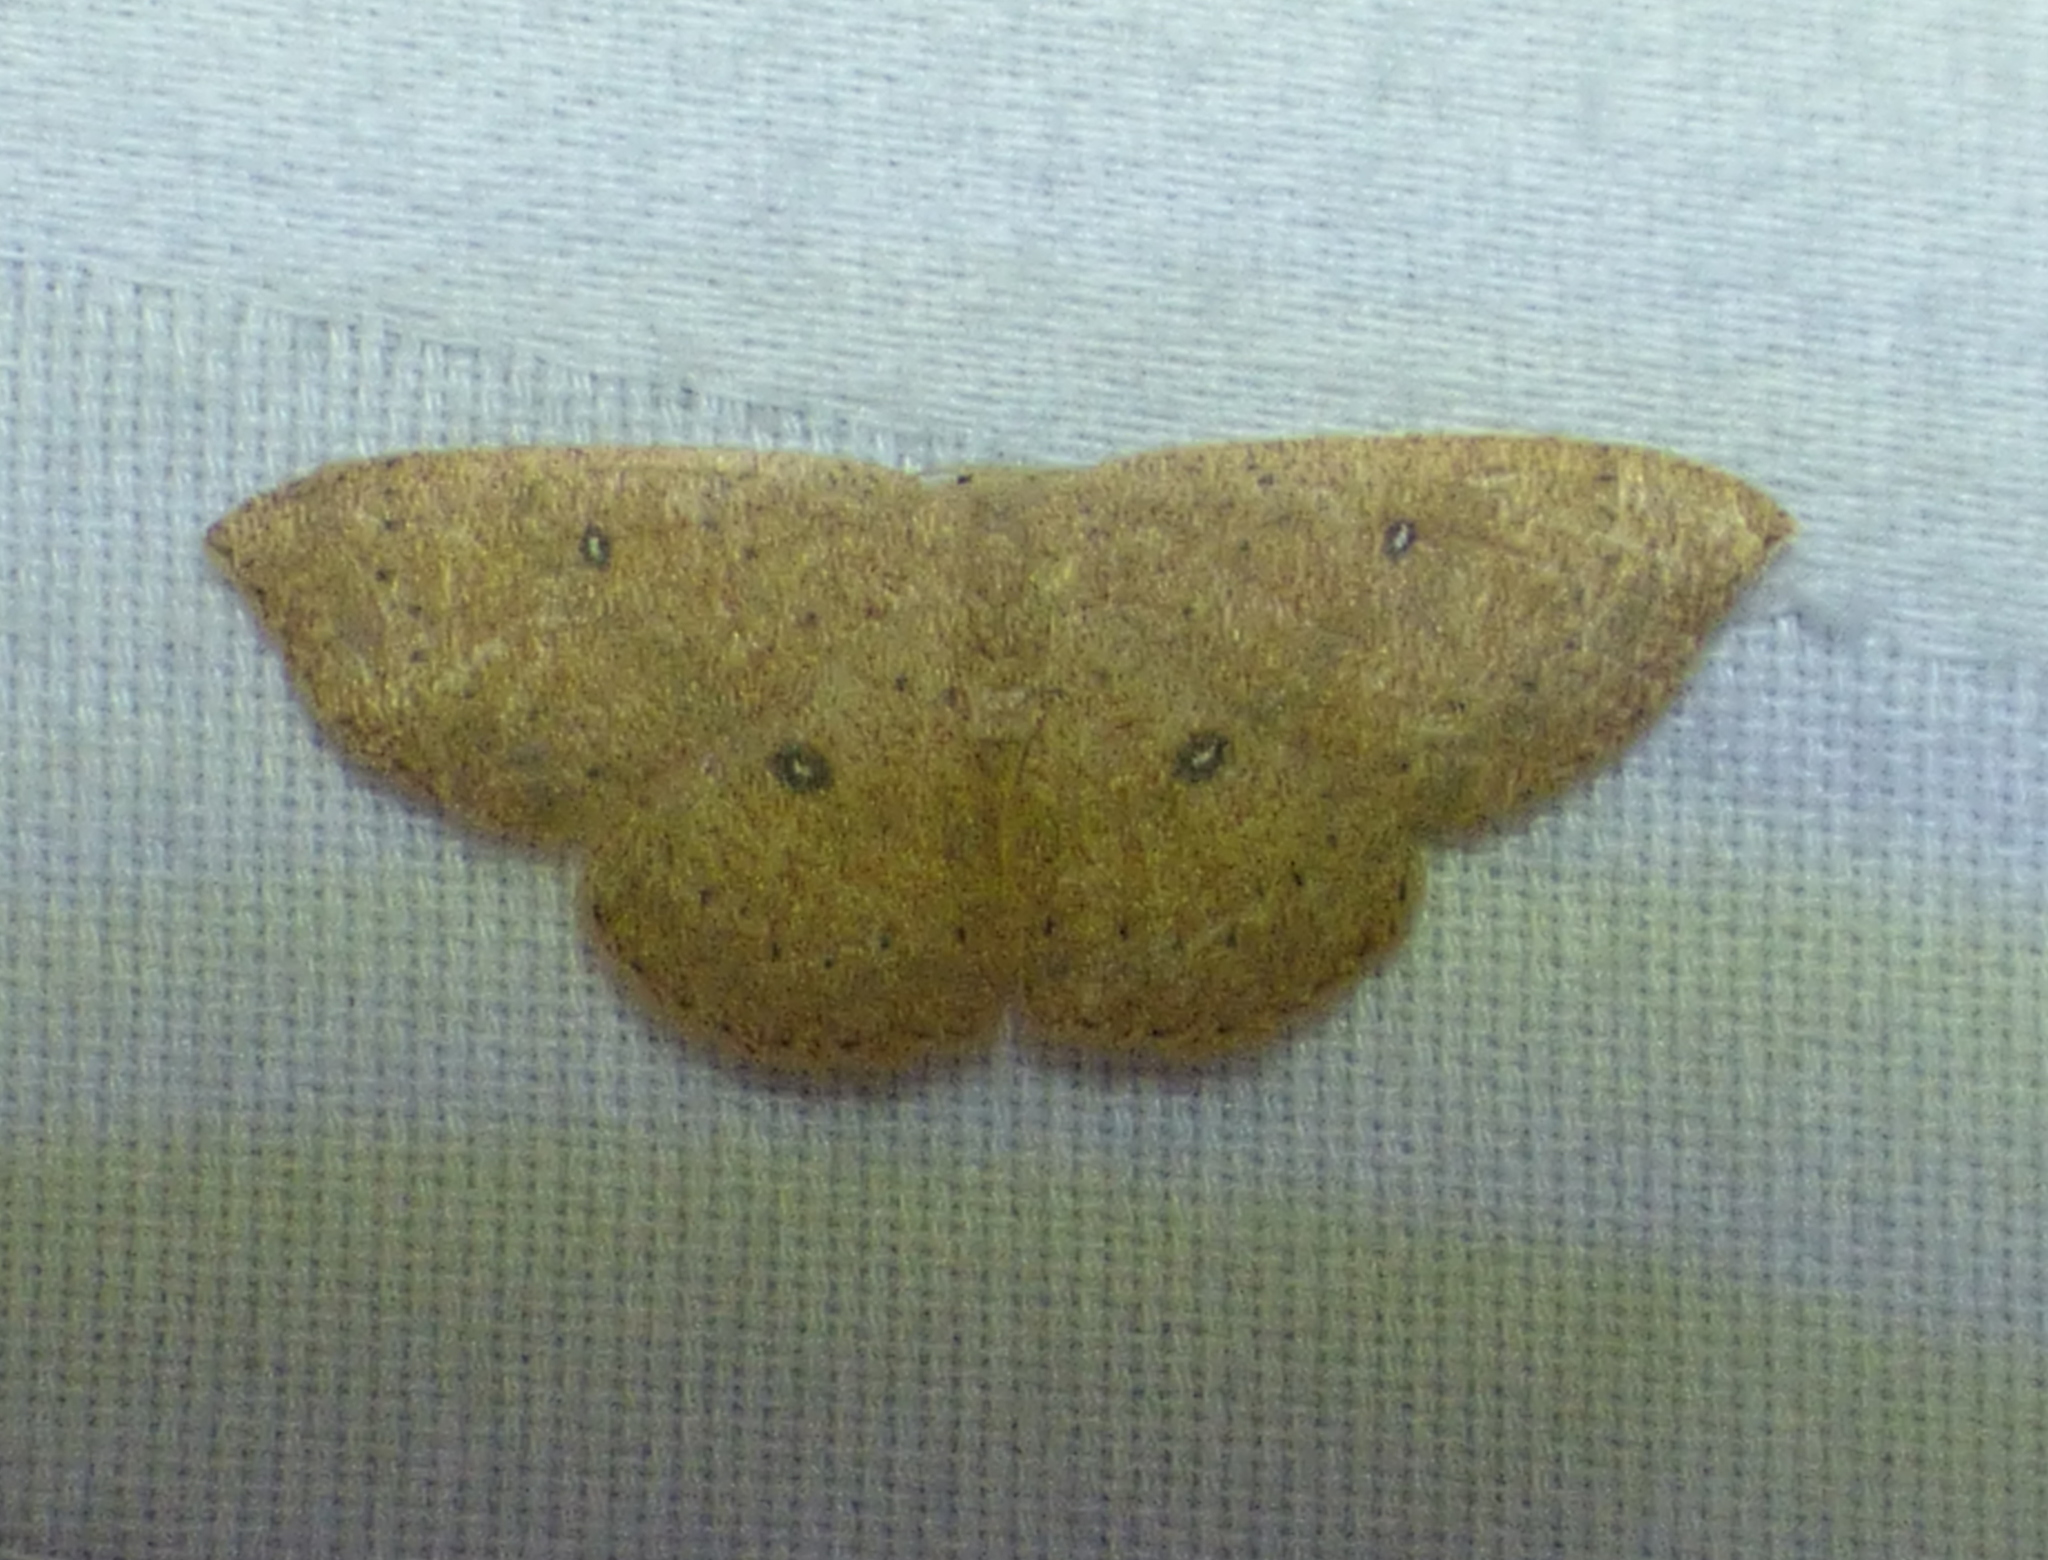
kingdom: Animalia
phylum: Arthropoda
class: Insecta
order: Lepidoptera
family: Geometridae
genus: Cyclophora
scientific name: Cyclophora packardi
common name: Packard's wave
